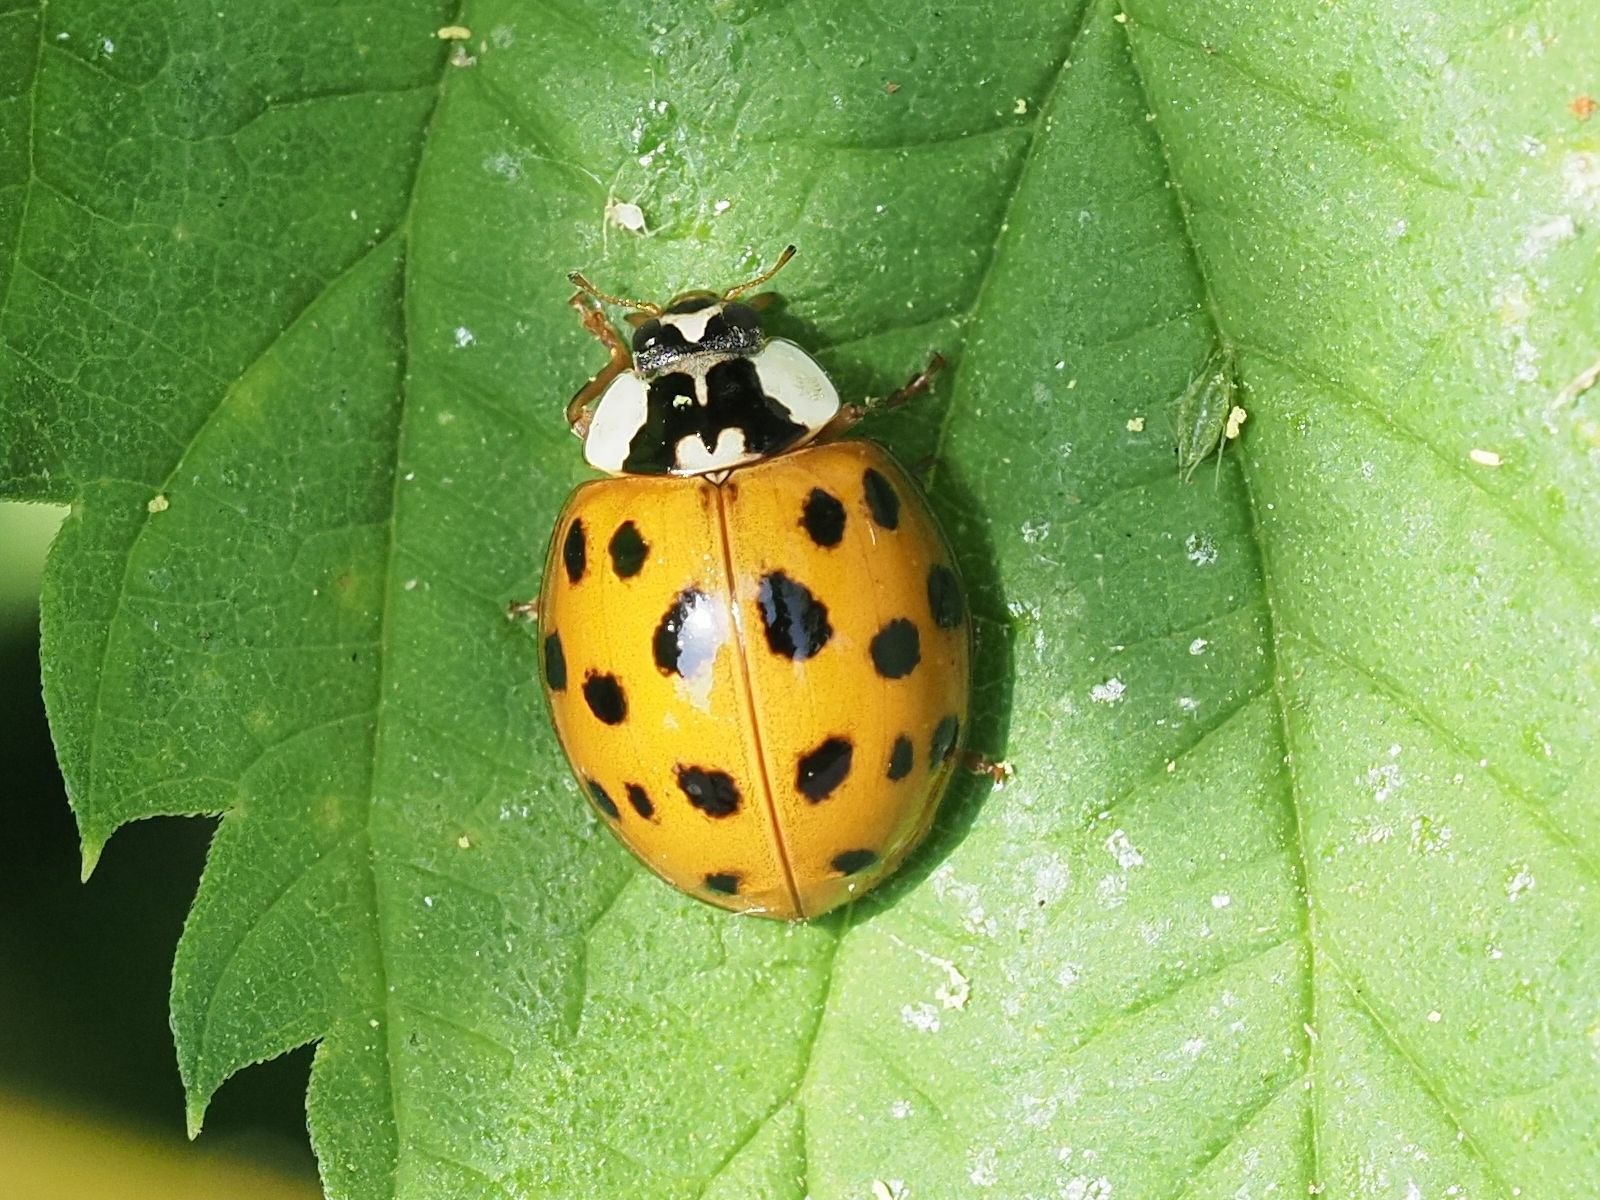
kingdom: Animalia
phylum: Arthropoda
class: Insecta
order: Coleoptera
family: Coccinellidae
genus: Harmonia
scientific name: Harmonia axyridis
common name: Harlequin ladybird
